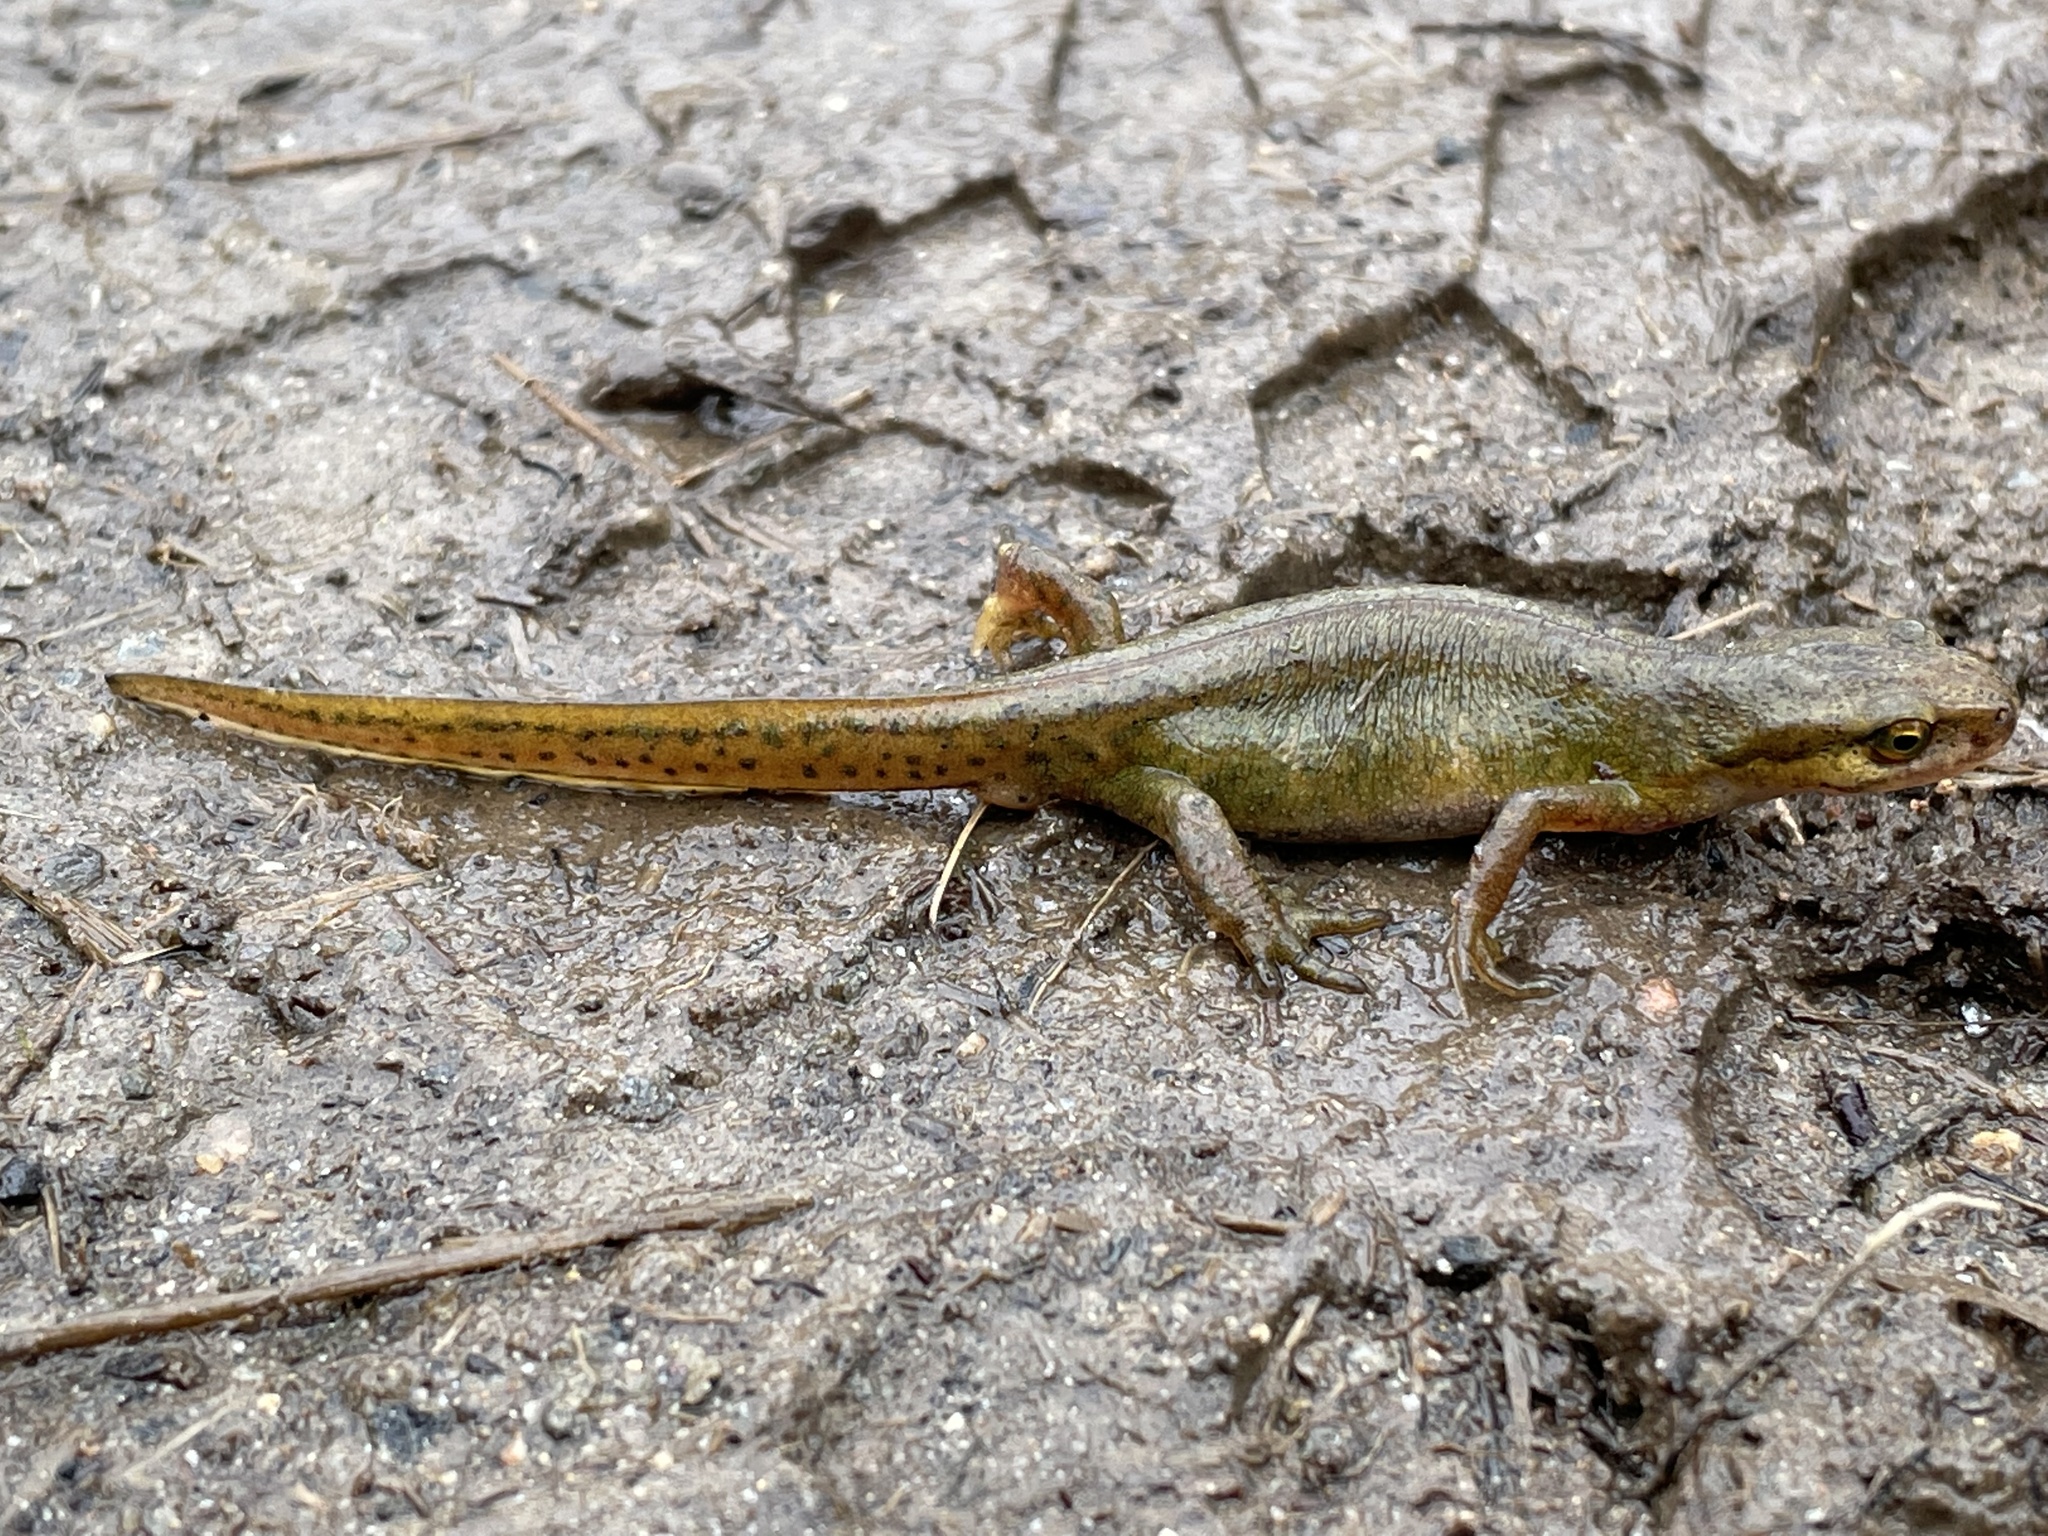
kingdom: Animalia
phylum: Chordata
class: Amphibia
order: Caudata
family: Salamandridae
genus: Lissotriton
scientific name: Lissotriton vulgaris
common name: Smooth newt
